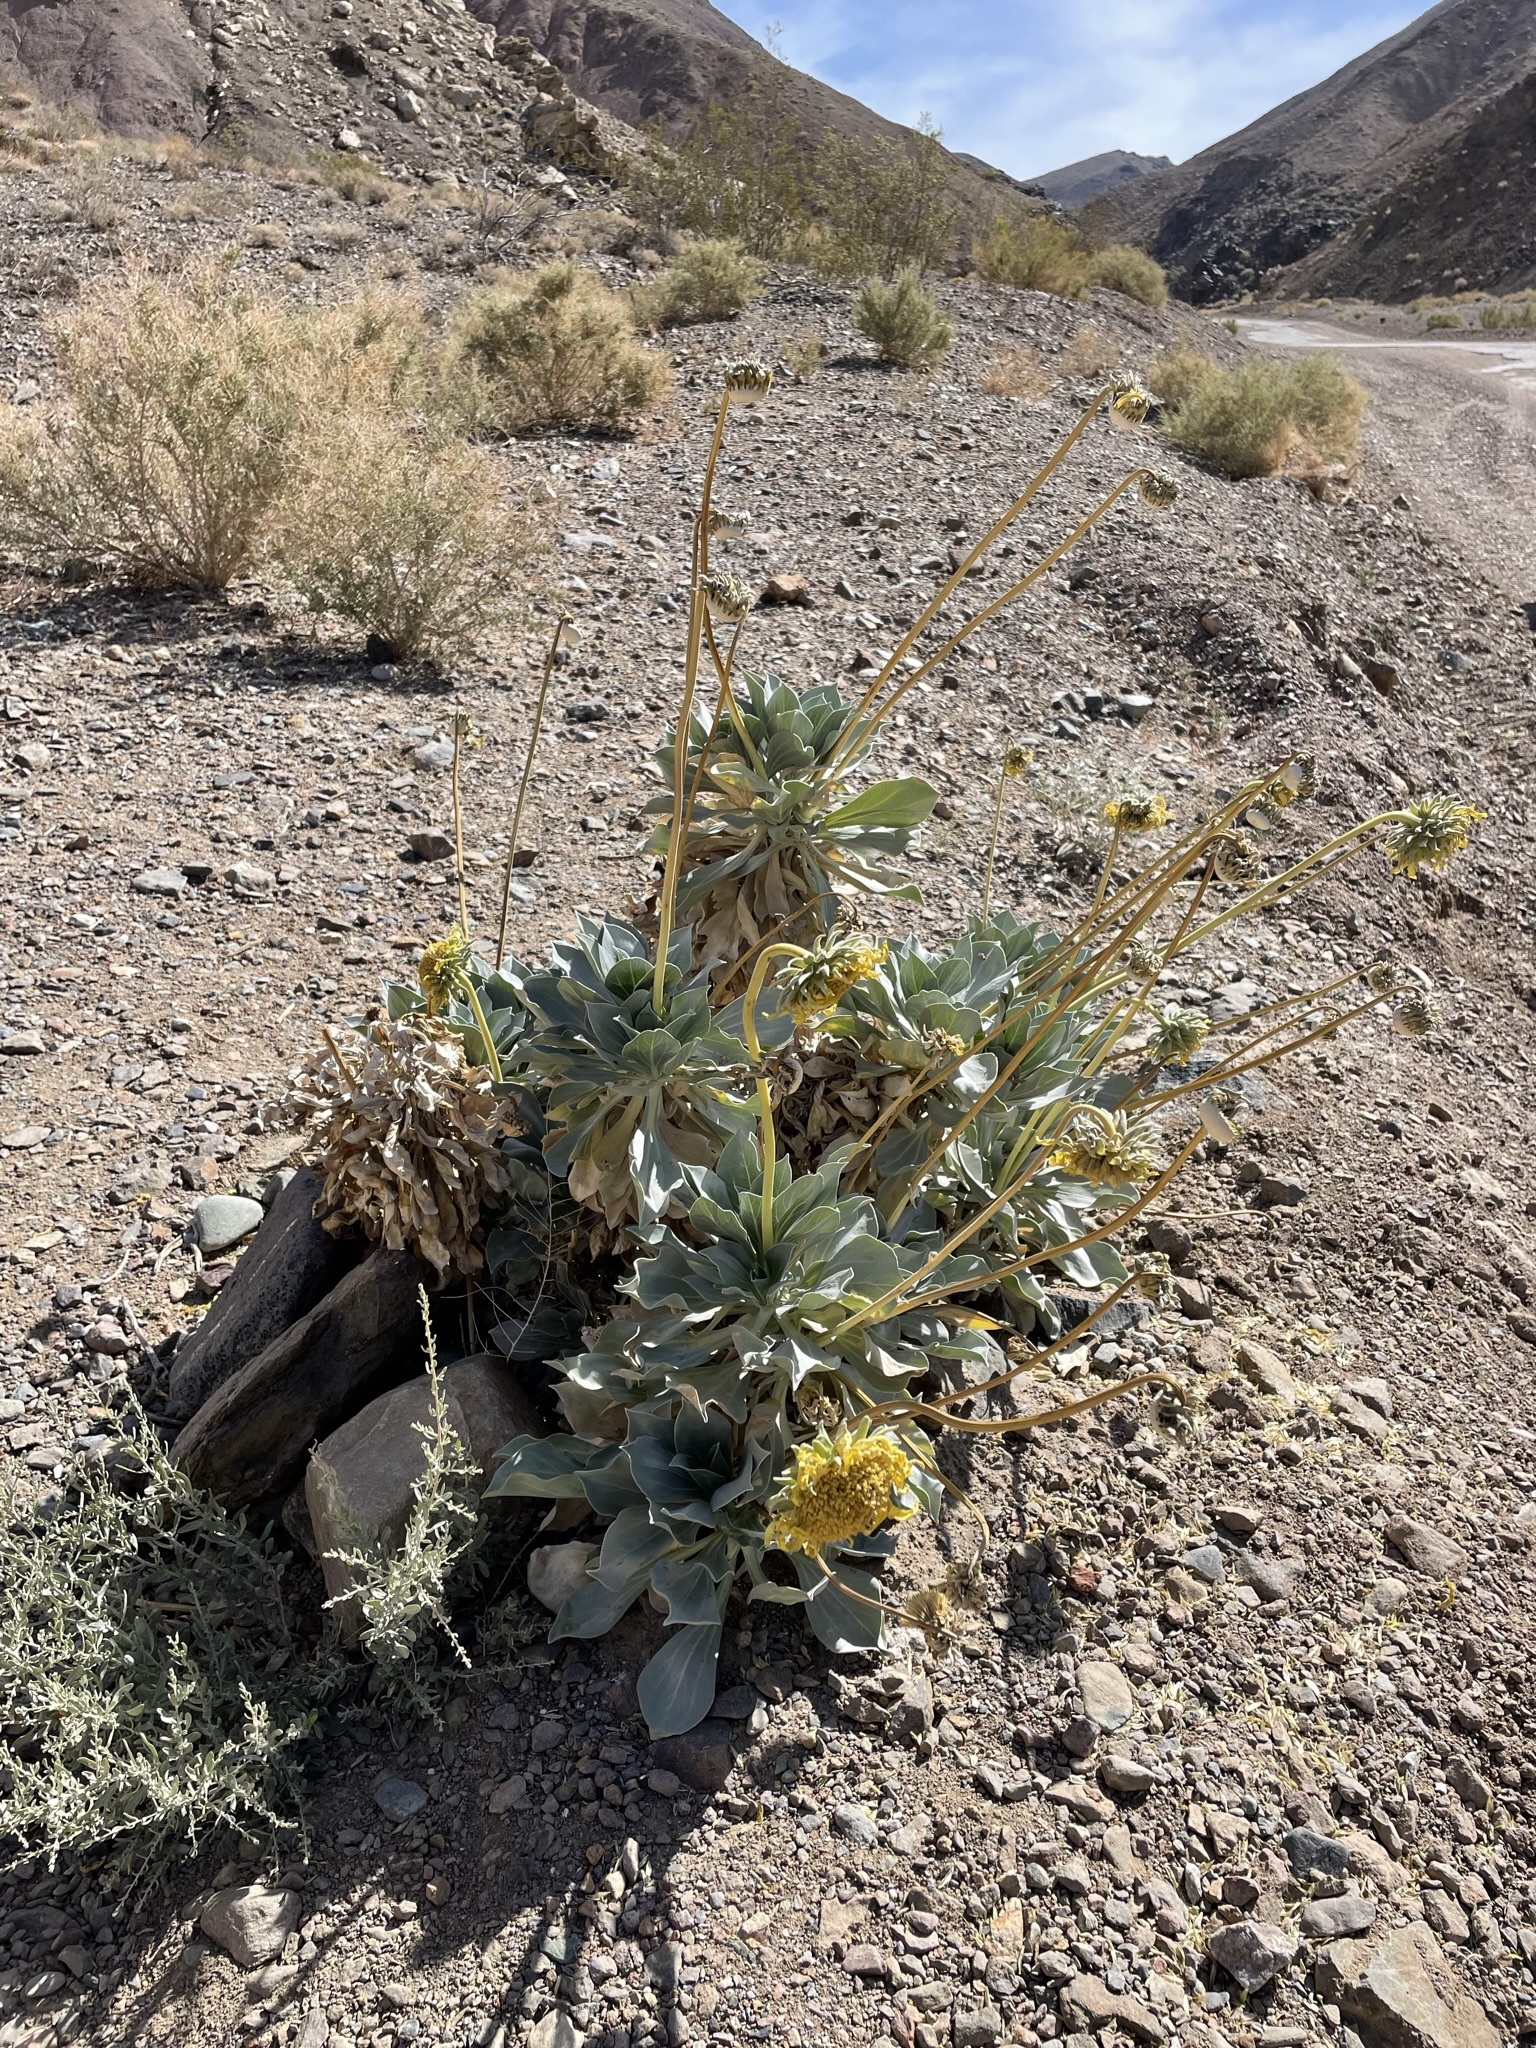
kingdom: Plantae
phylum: Tracheophyta
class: Magnoliopsida
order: Asterales
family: Asteraceae
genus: Enceliopsis
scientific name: Enceliopsis covillei
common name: Panamint daisy
